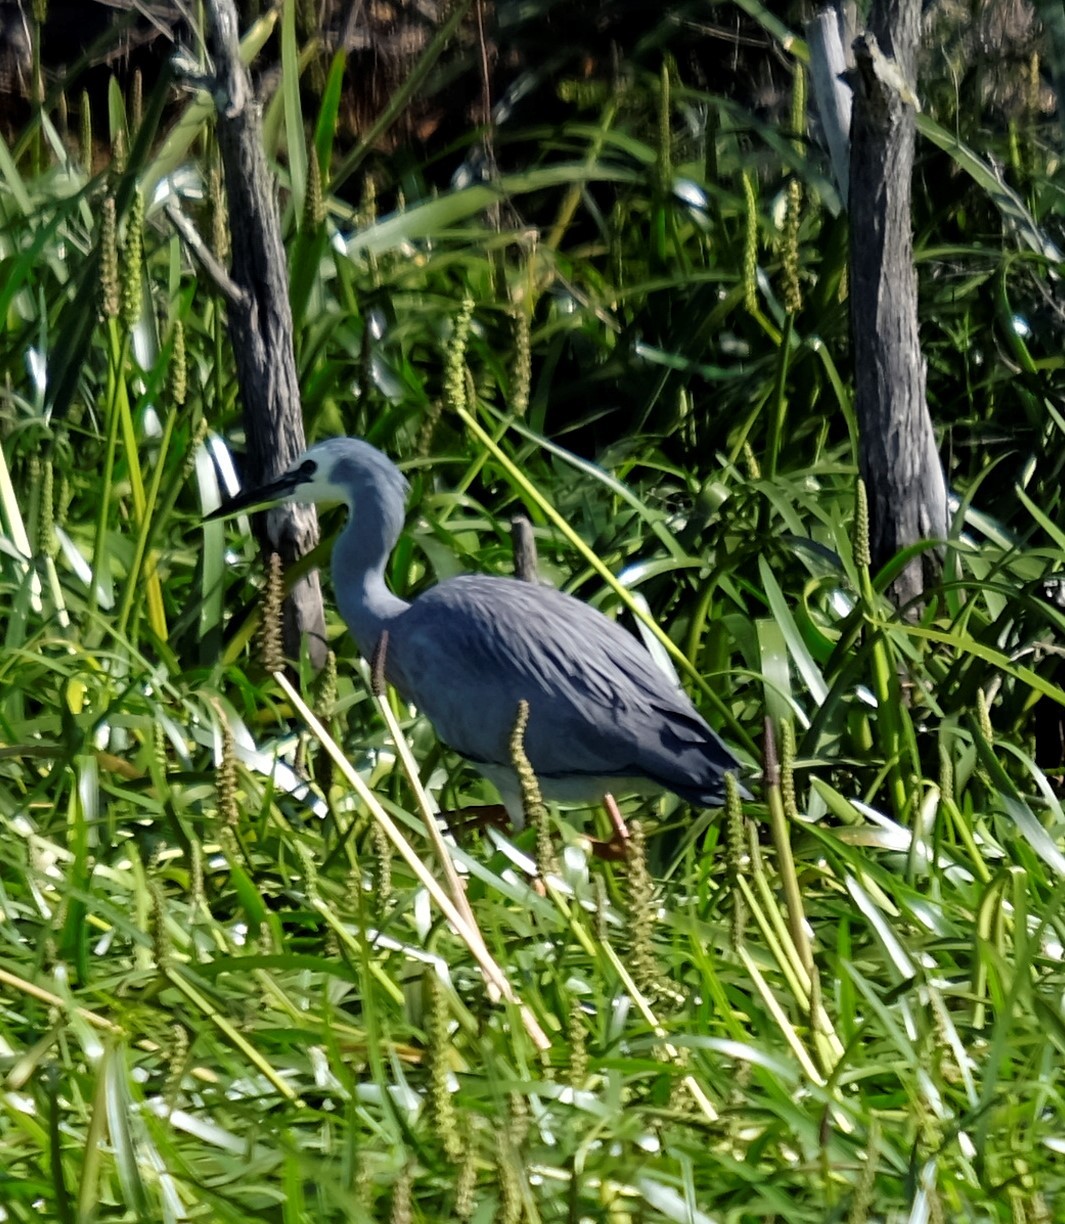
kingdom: Animalia
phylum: Chordata
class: Aves
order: Pelecaniformes
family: Ardeidae
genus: Egretta
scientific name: Egretta novaehollandiae
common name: White-faced heron
